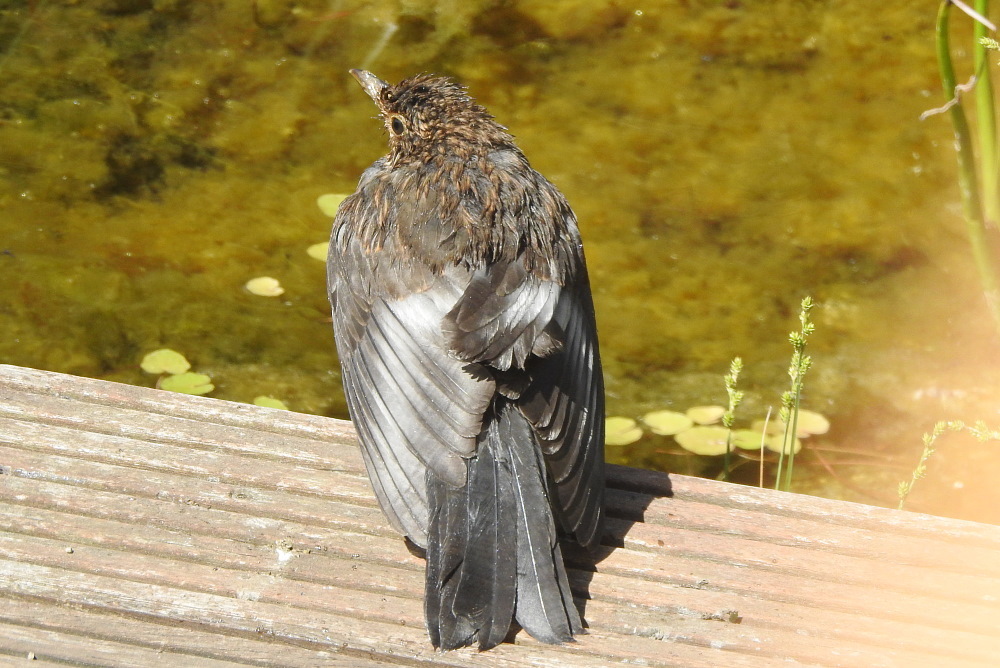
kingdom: Animalia
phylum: Chordata
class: Aves
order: Passeriformes
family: Turdidae
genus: Turdus
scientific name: Turdus merula
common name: Common blackbird
